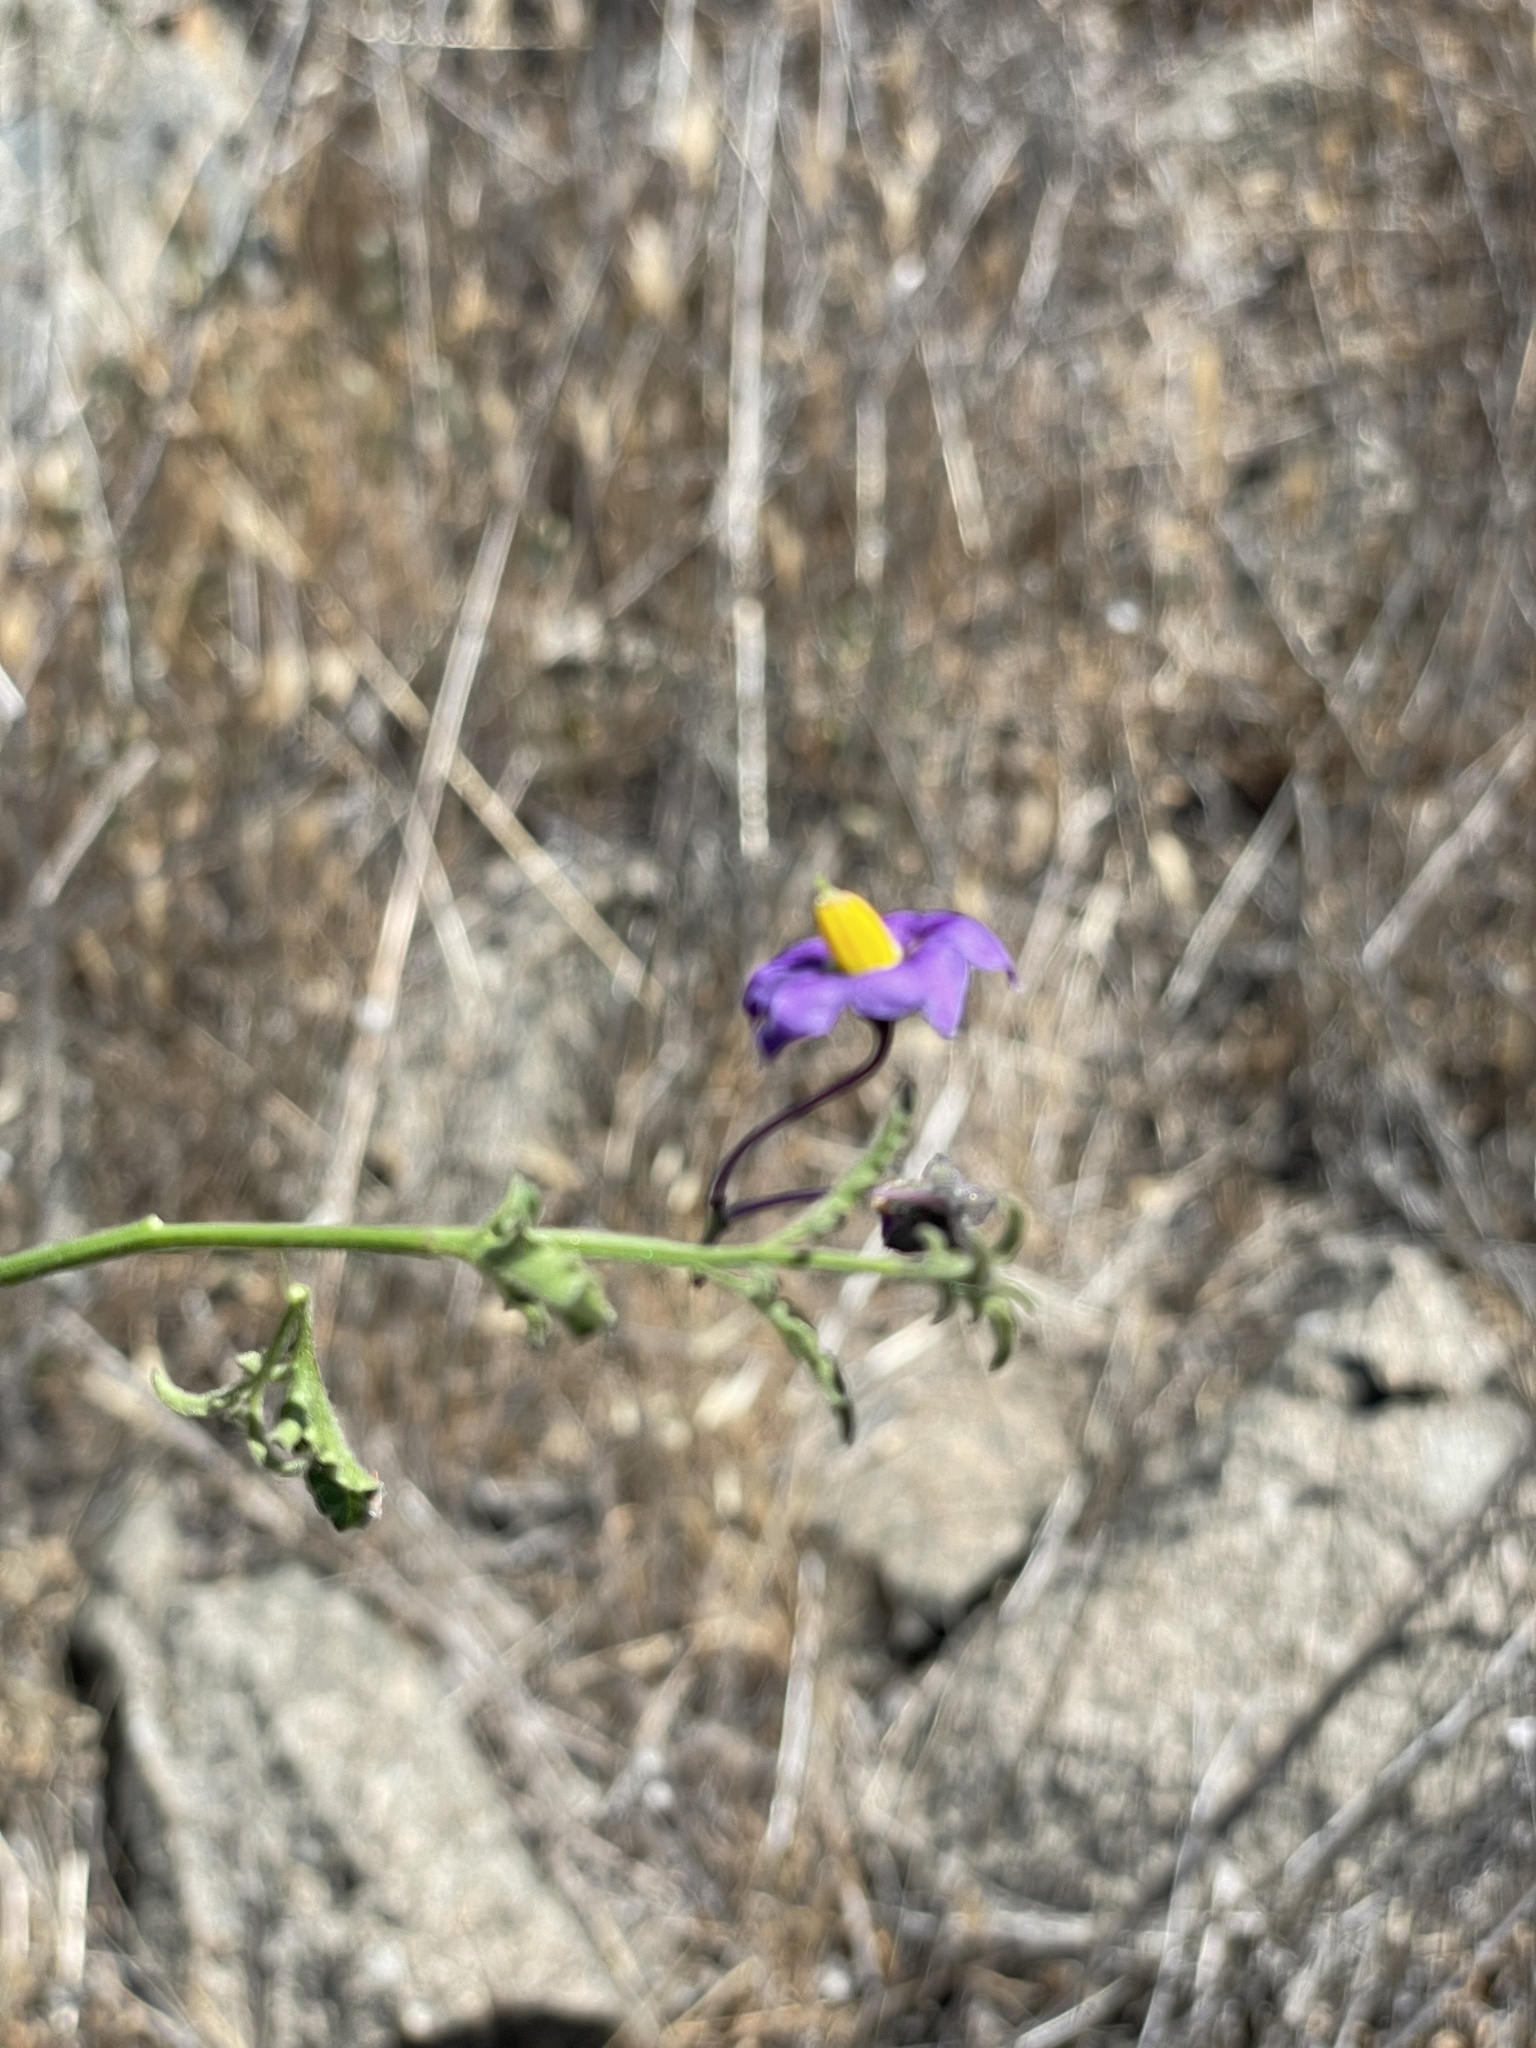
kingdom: Plantae
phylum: Tracheophyta
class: Magnoliopsida
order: Solanales
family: Solanaceae
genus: Solanum
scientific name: Solanum umbelliferum
